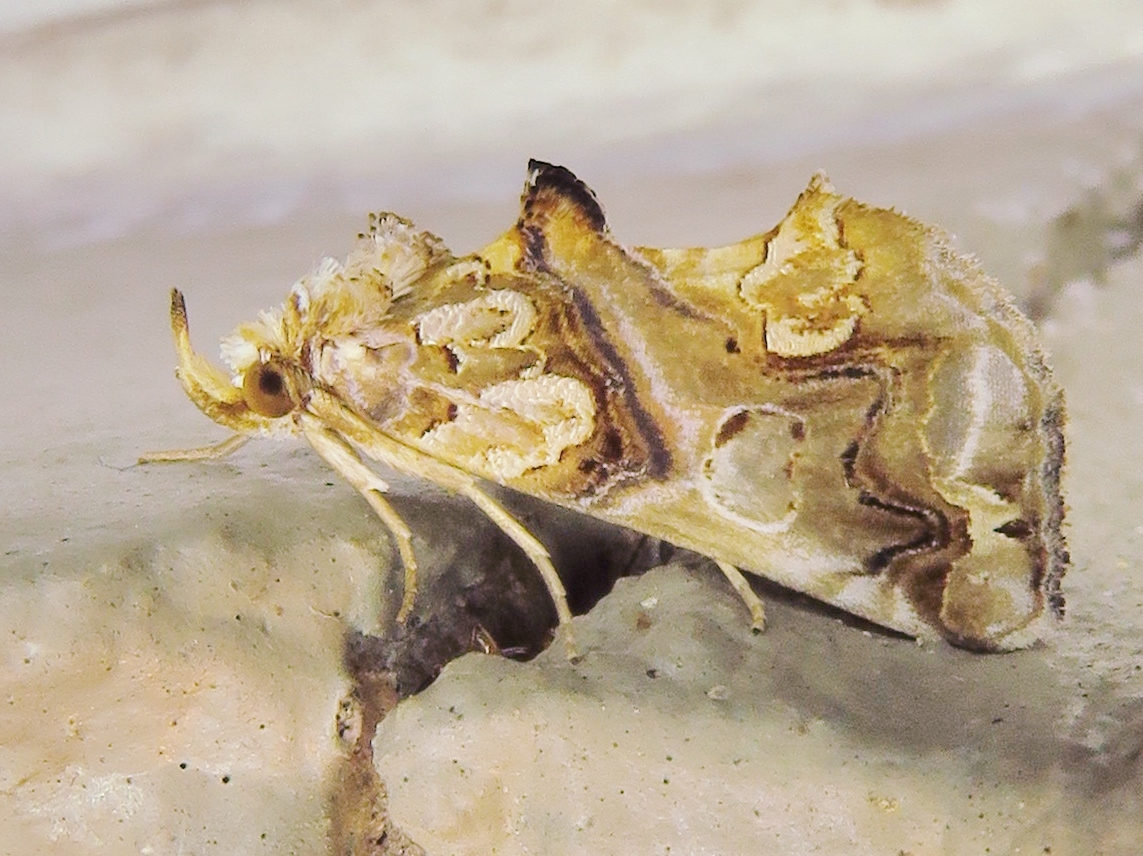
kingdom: Animalia
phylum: Arthropoda
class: Insecta
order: Lepidoptera
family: Erebidae
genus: Plusiodonta
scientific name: Plusiodonta compressipalpis
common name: Moonseed moth
